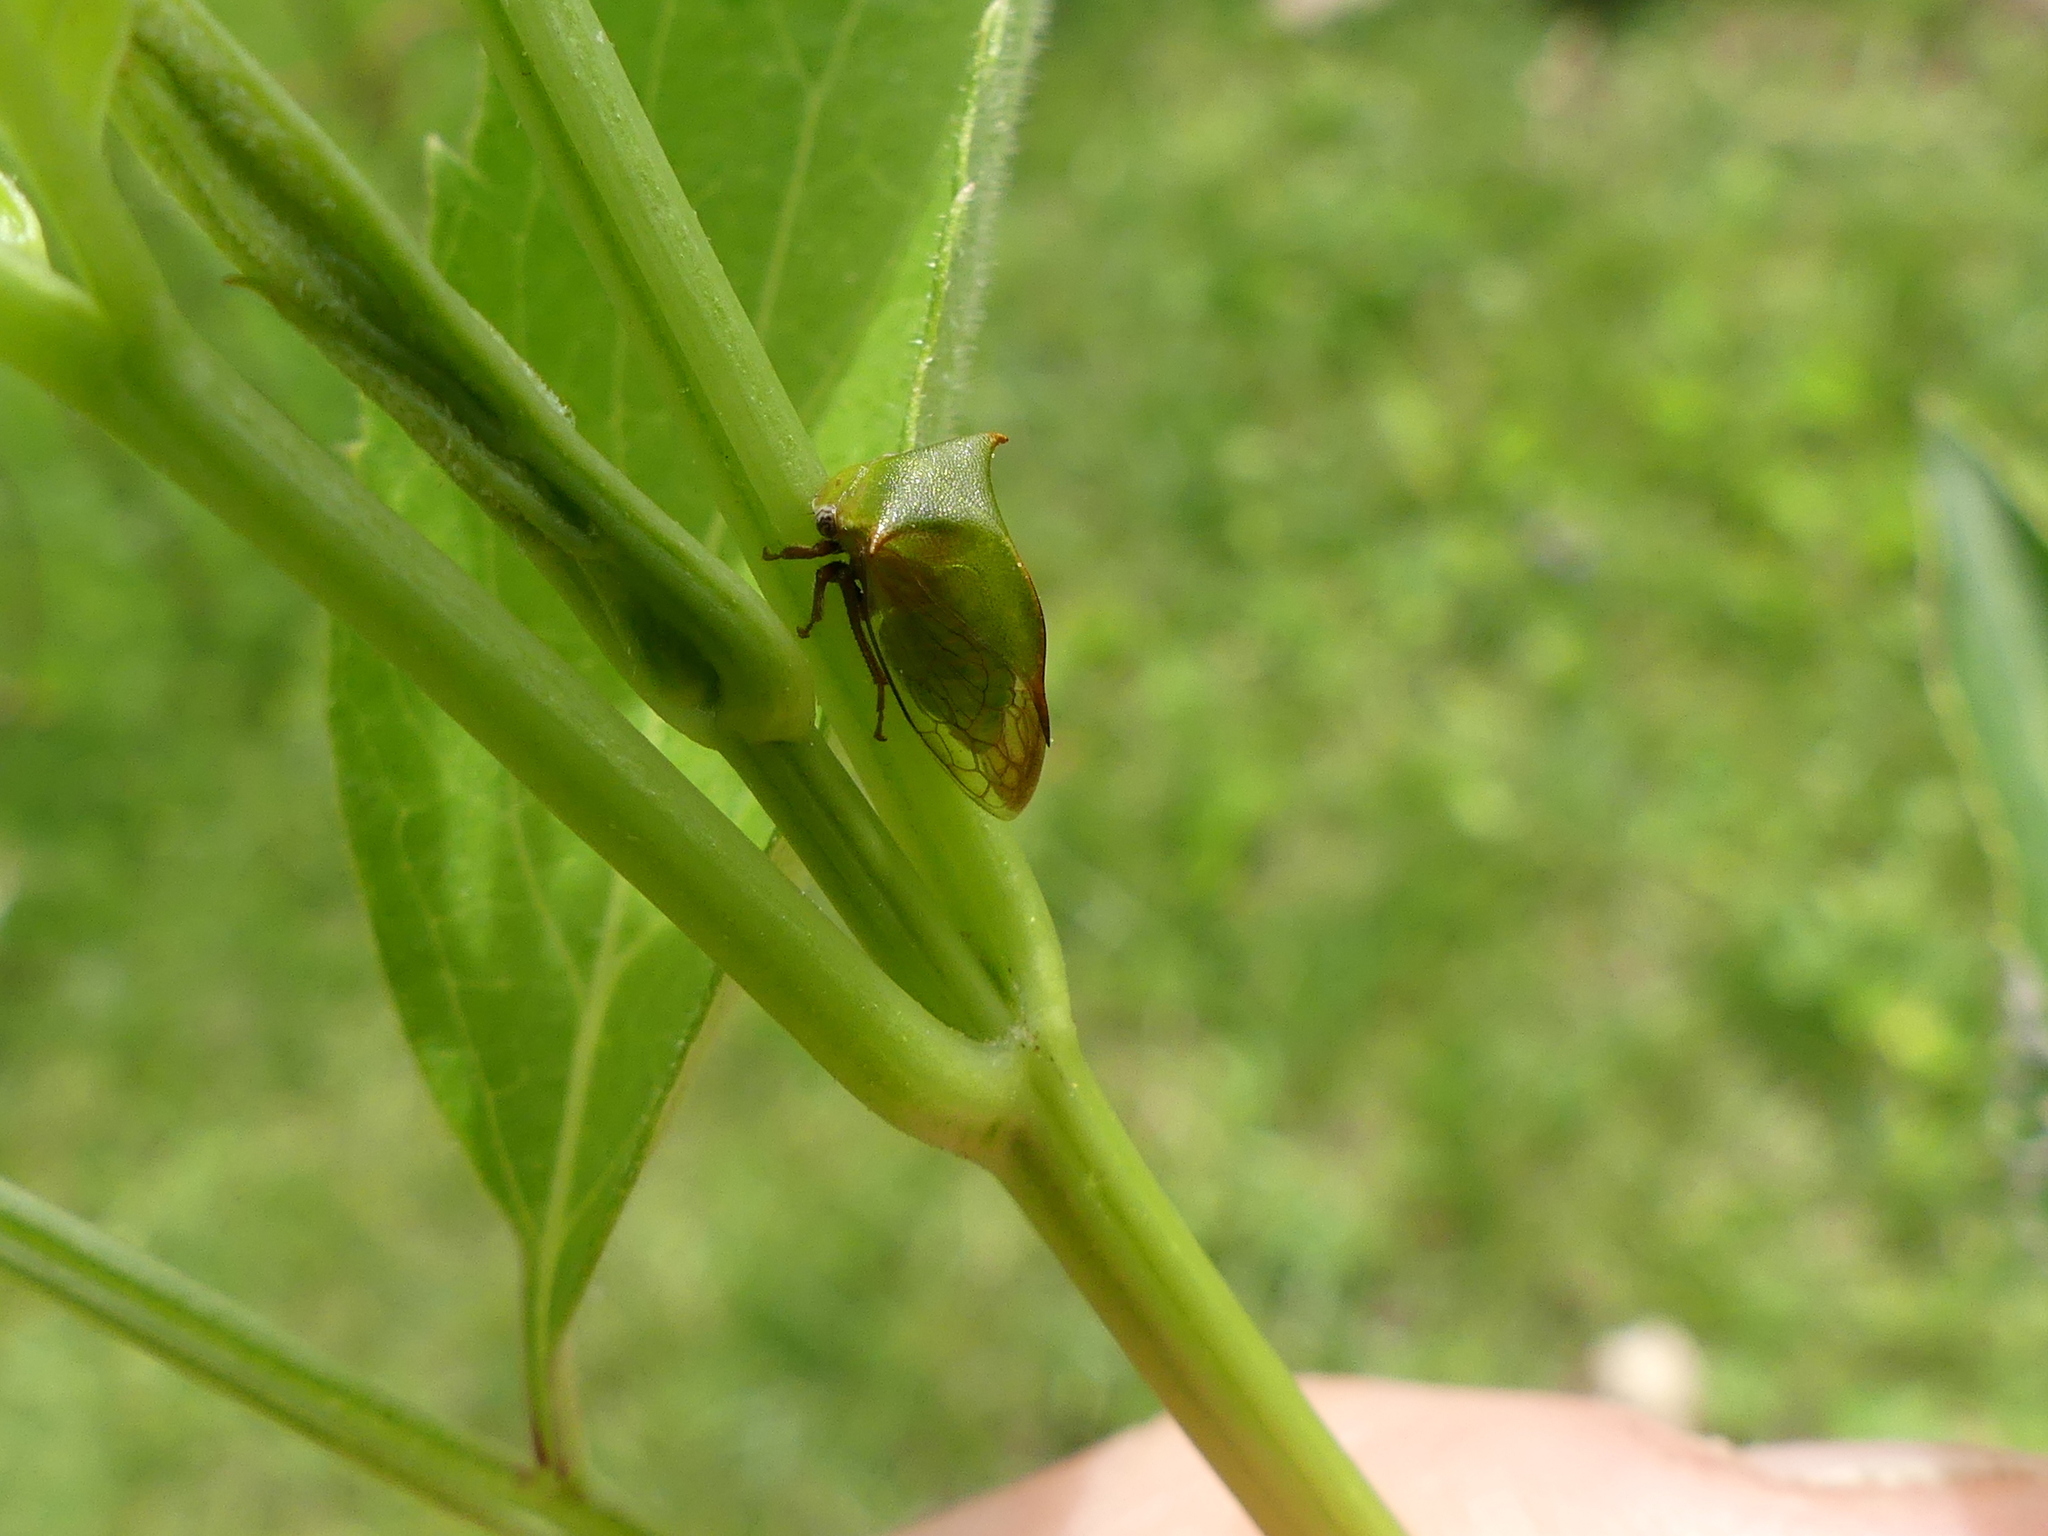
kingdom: Animalia
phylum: Arthropoda
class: Insecta
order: Hemiptera
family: Membracidae
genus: Stictocephala
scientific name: Stictocephala brevitylus
